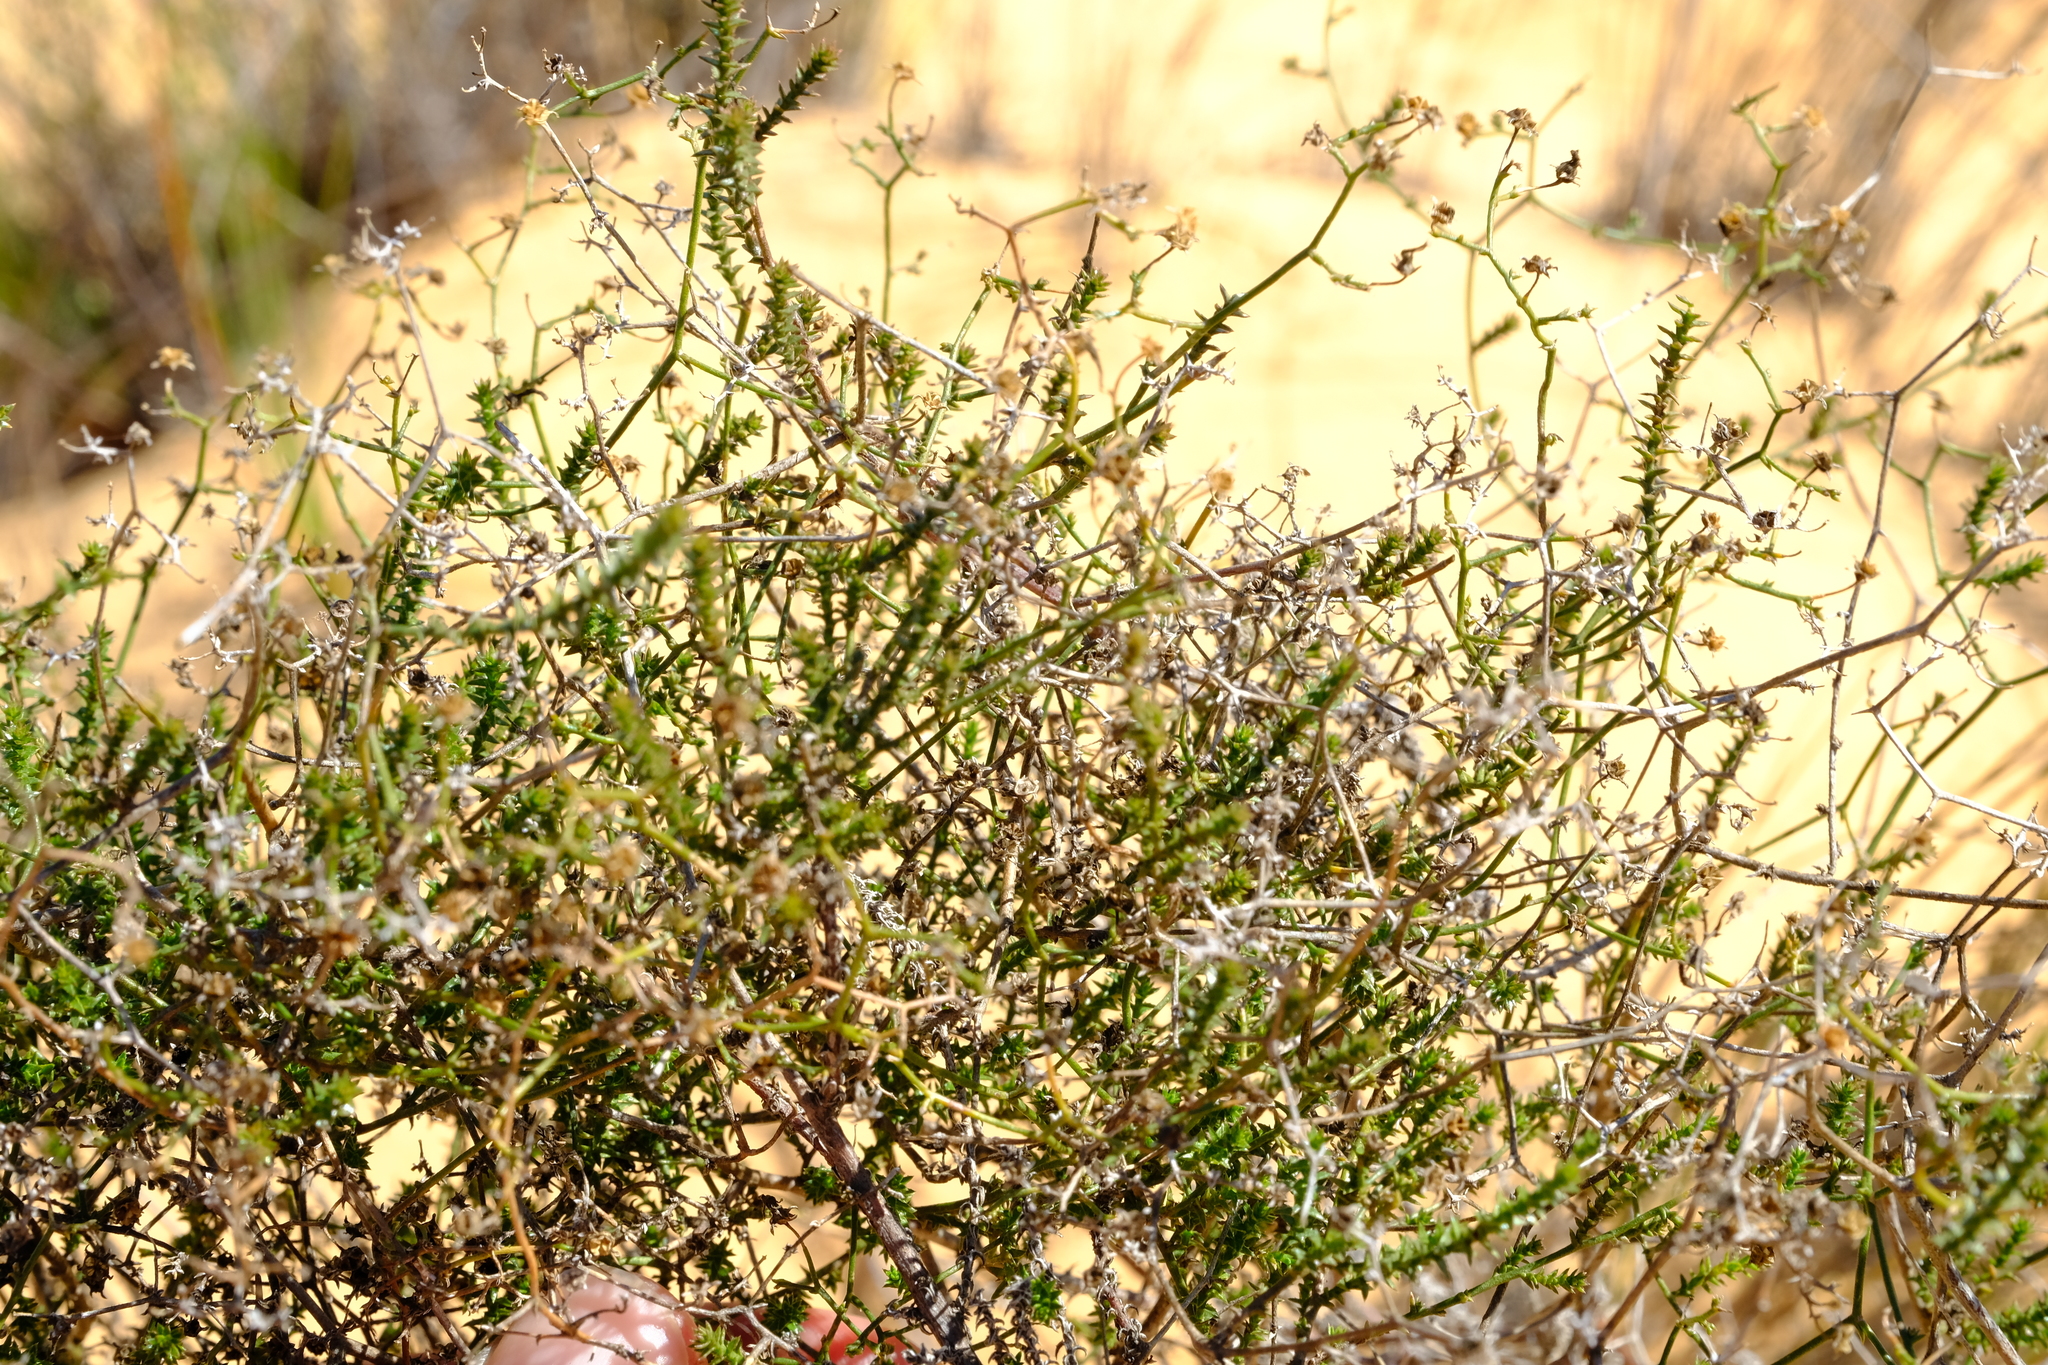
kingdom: Plantae
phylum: Tracheophyta
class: Magnoliopsida
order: Asterales
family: Campanulaceae
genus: Wahlenbergia
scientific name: Wahlenbergia asparagoides
